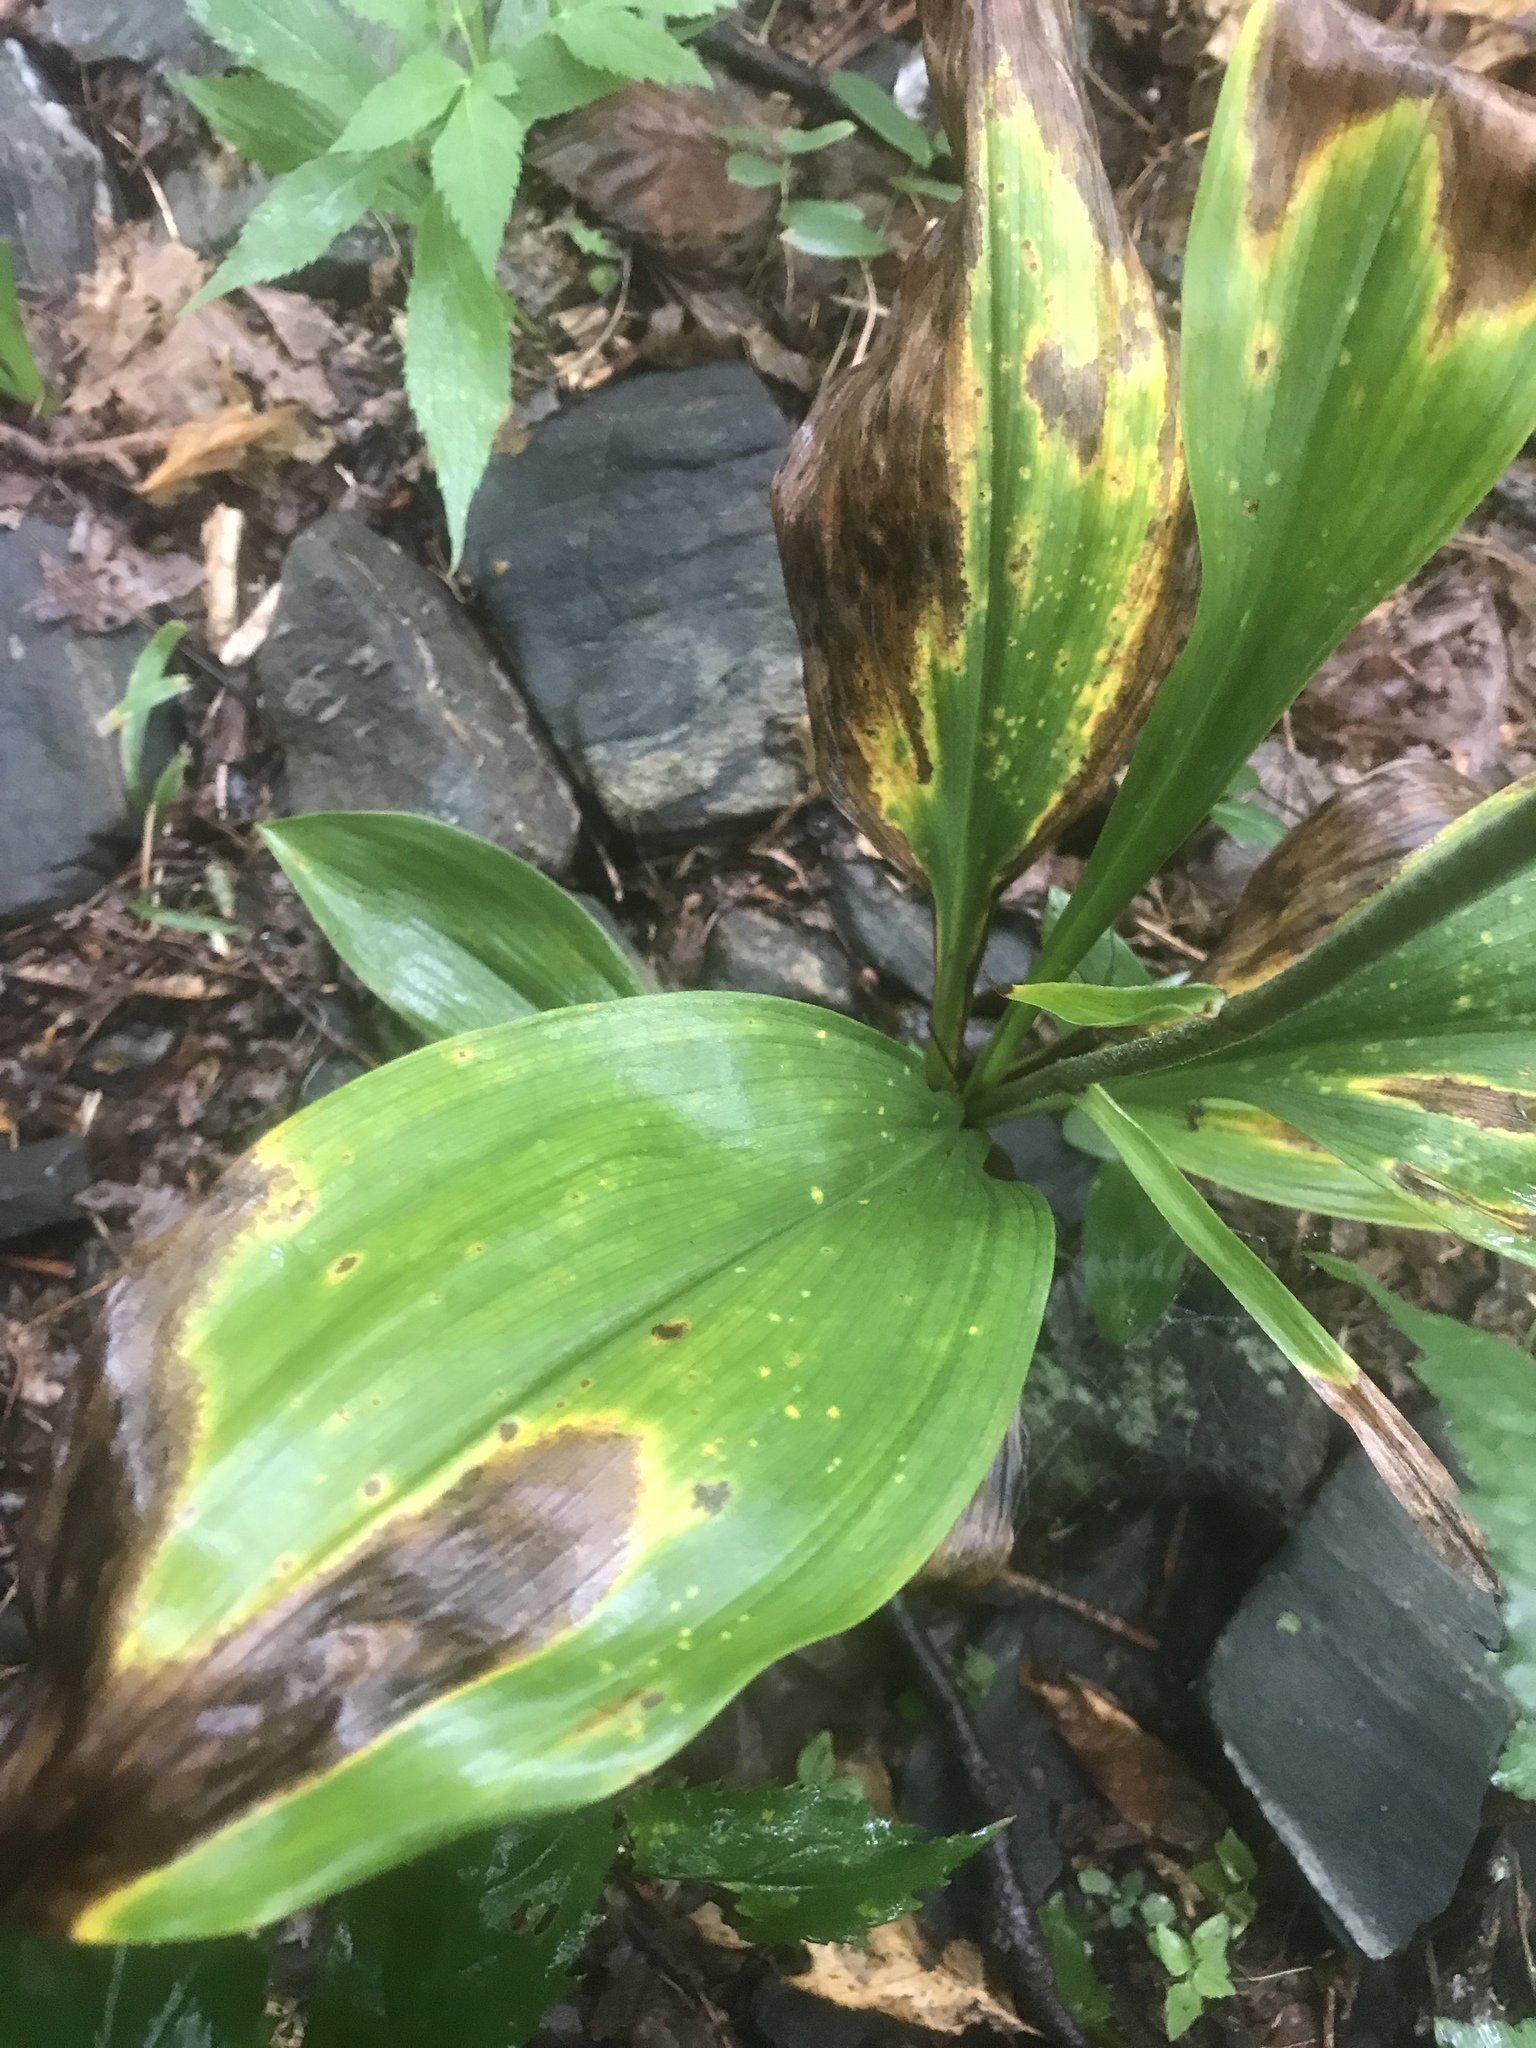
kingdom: Plantae
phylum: Tracheophyta
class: Liliopsida
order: Liliales
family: Melanthiaceae
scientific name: Melanthiaceae
